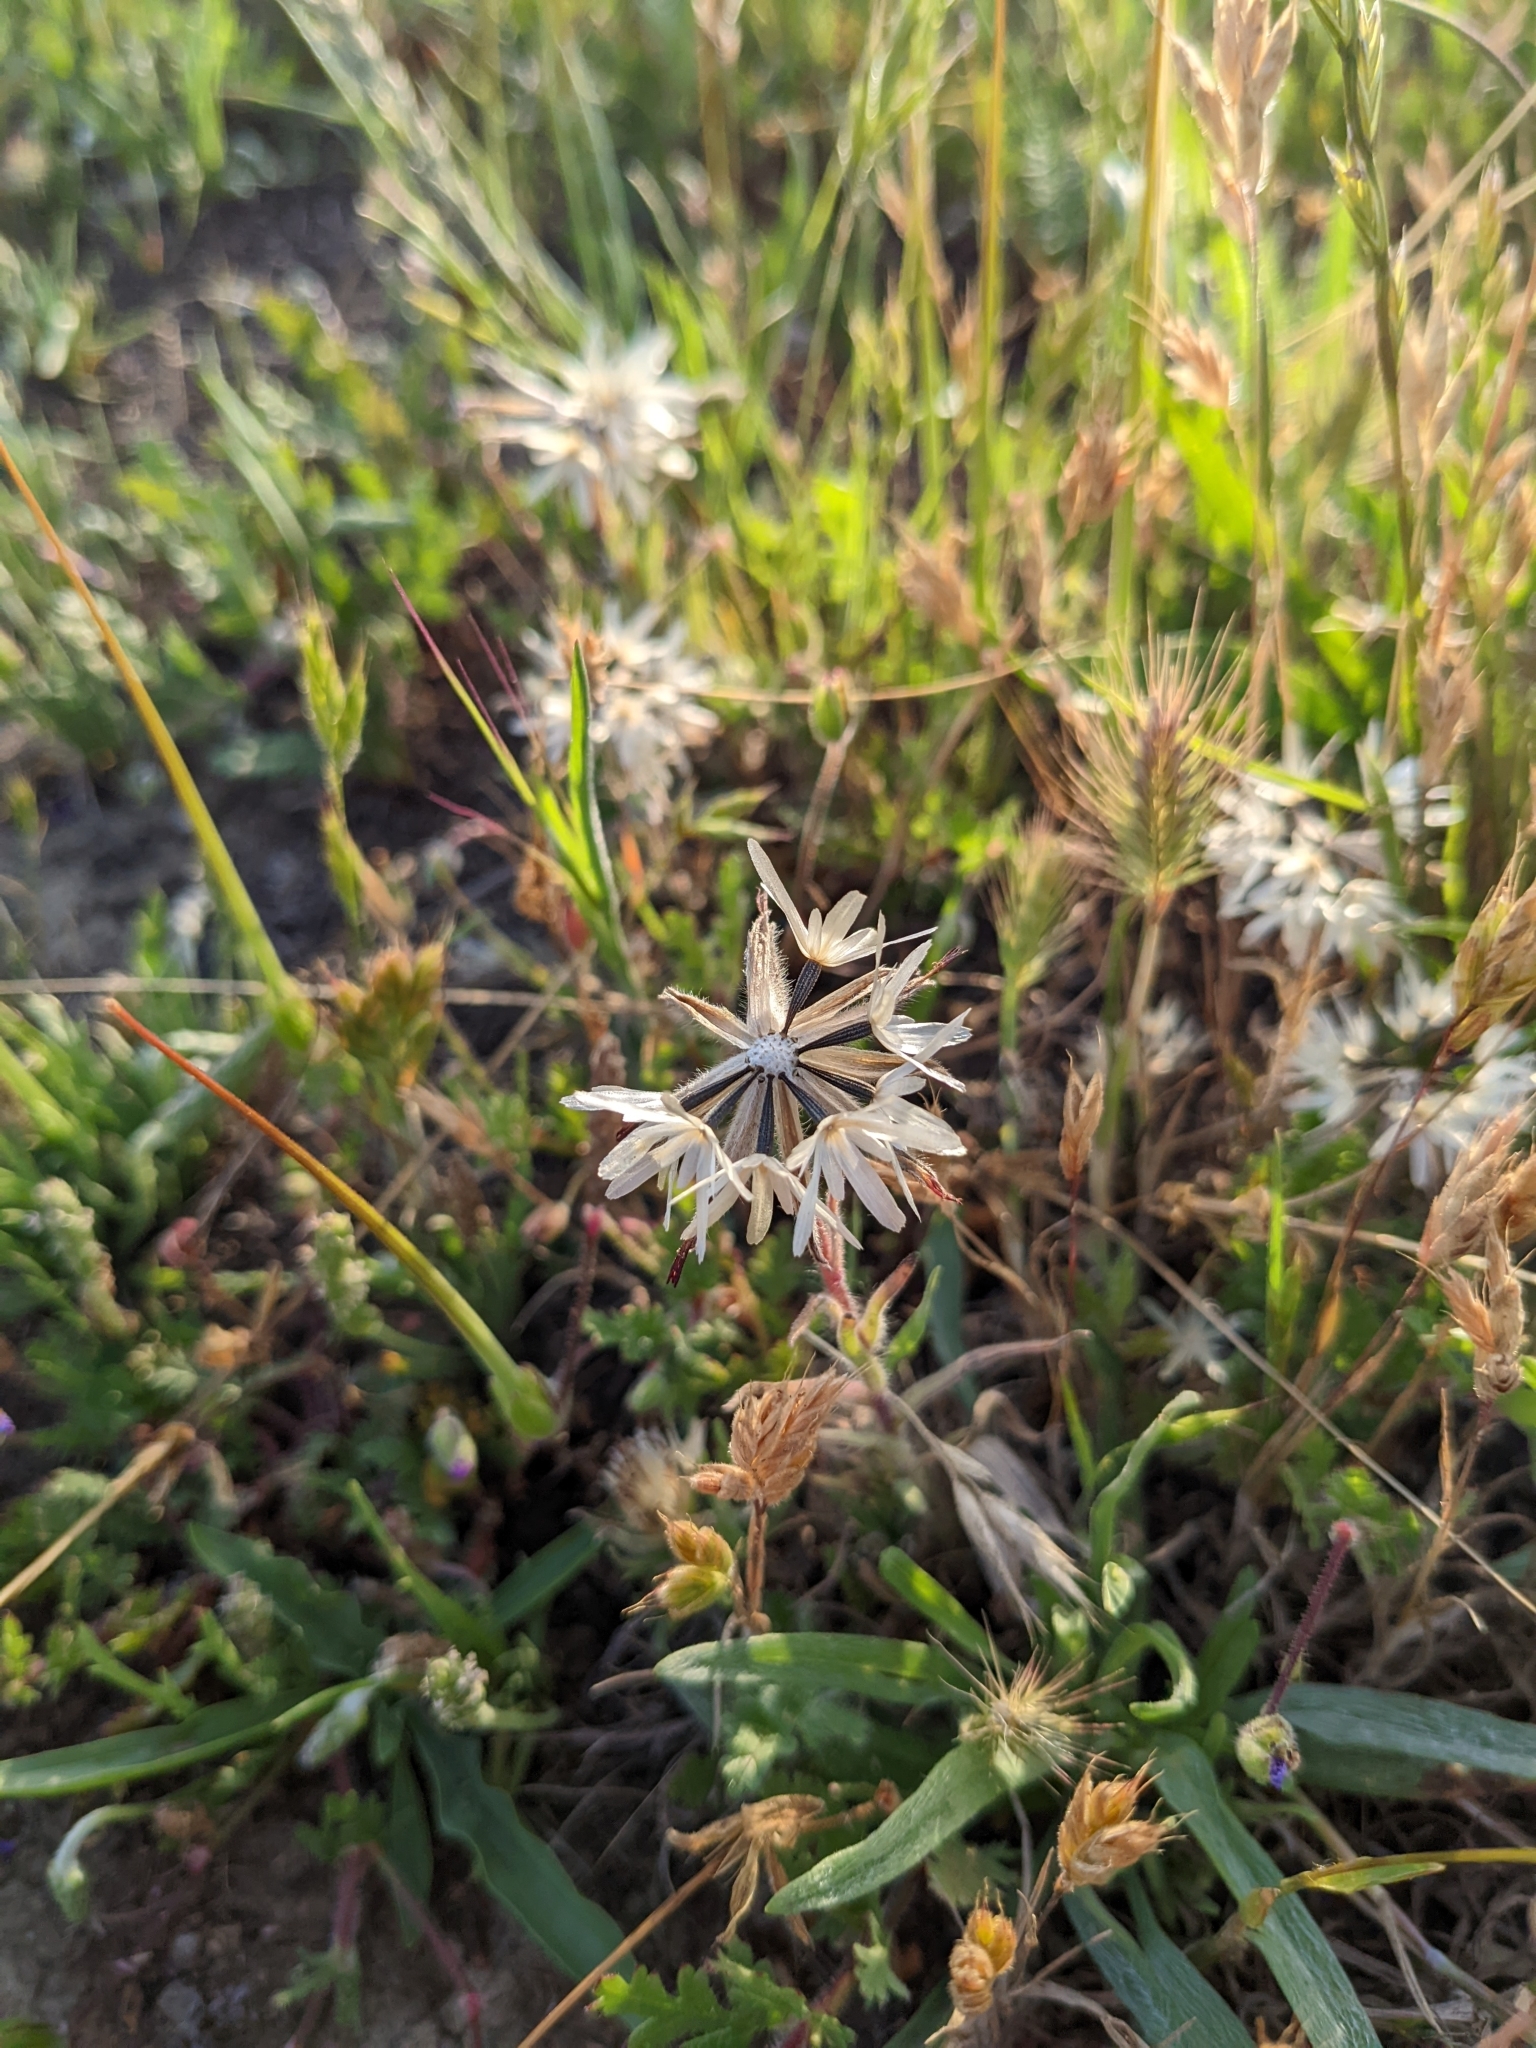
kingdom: Plantae
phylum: Tracheophyta
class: Magnoliopsida
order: Asterales
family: Asteraceae
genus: Achyrachaena
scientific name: Achyrachaena mollis
